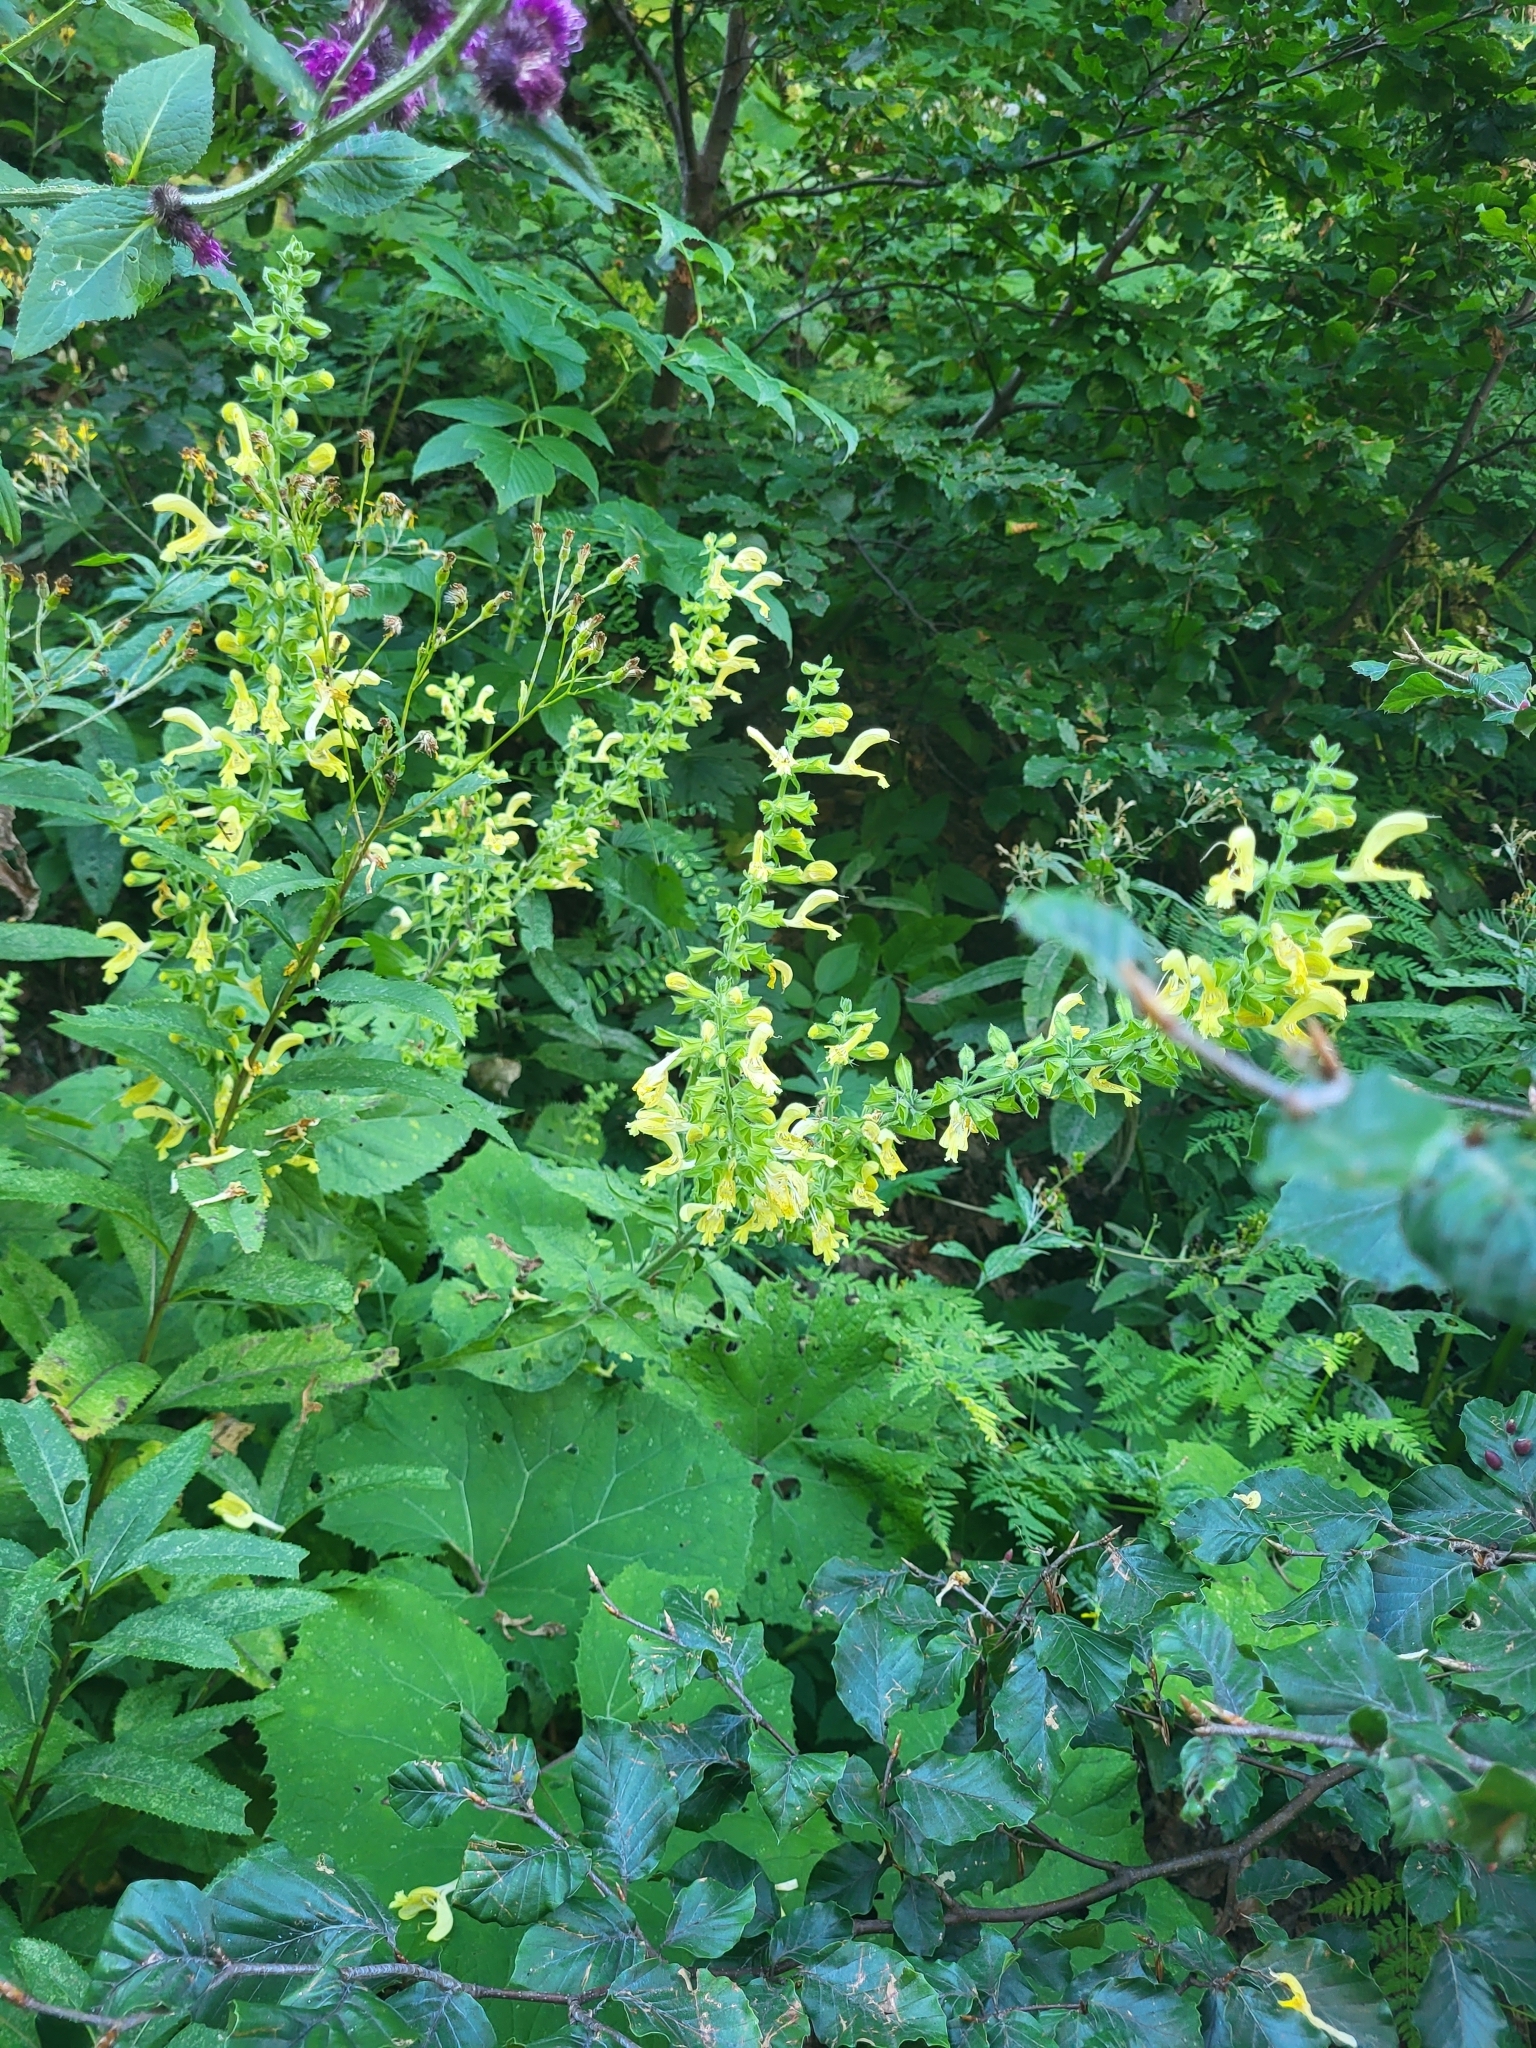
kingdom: Plantae
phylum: Tracheophyta
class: Magnoliopsida
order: Lamiales
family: Lamiaceae
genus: Salvia
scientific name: Salvia glutinosa
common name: Sticky clary
